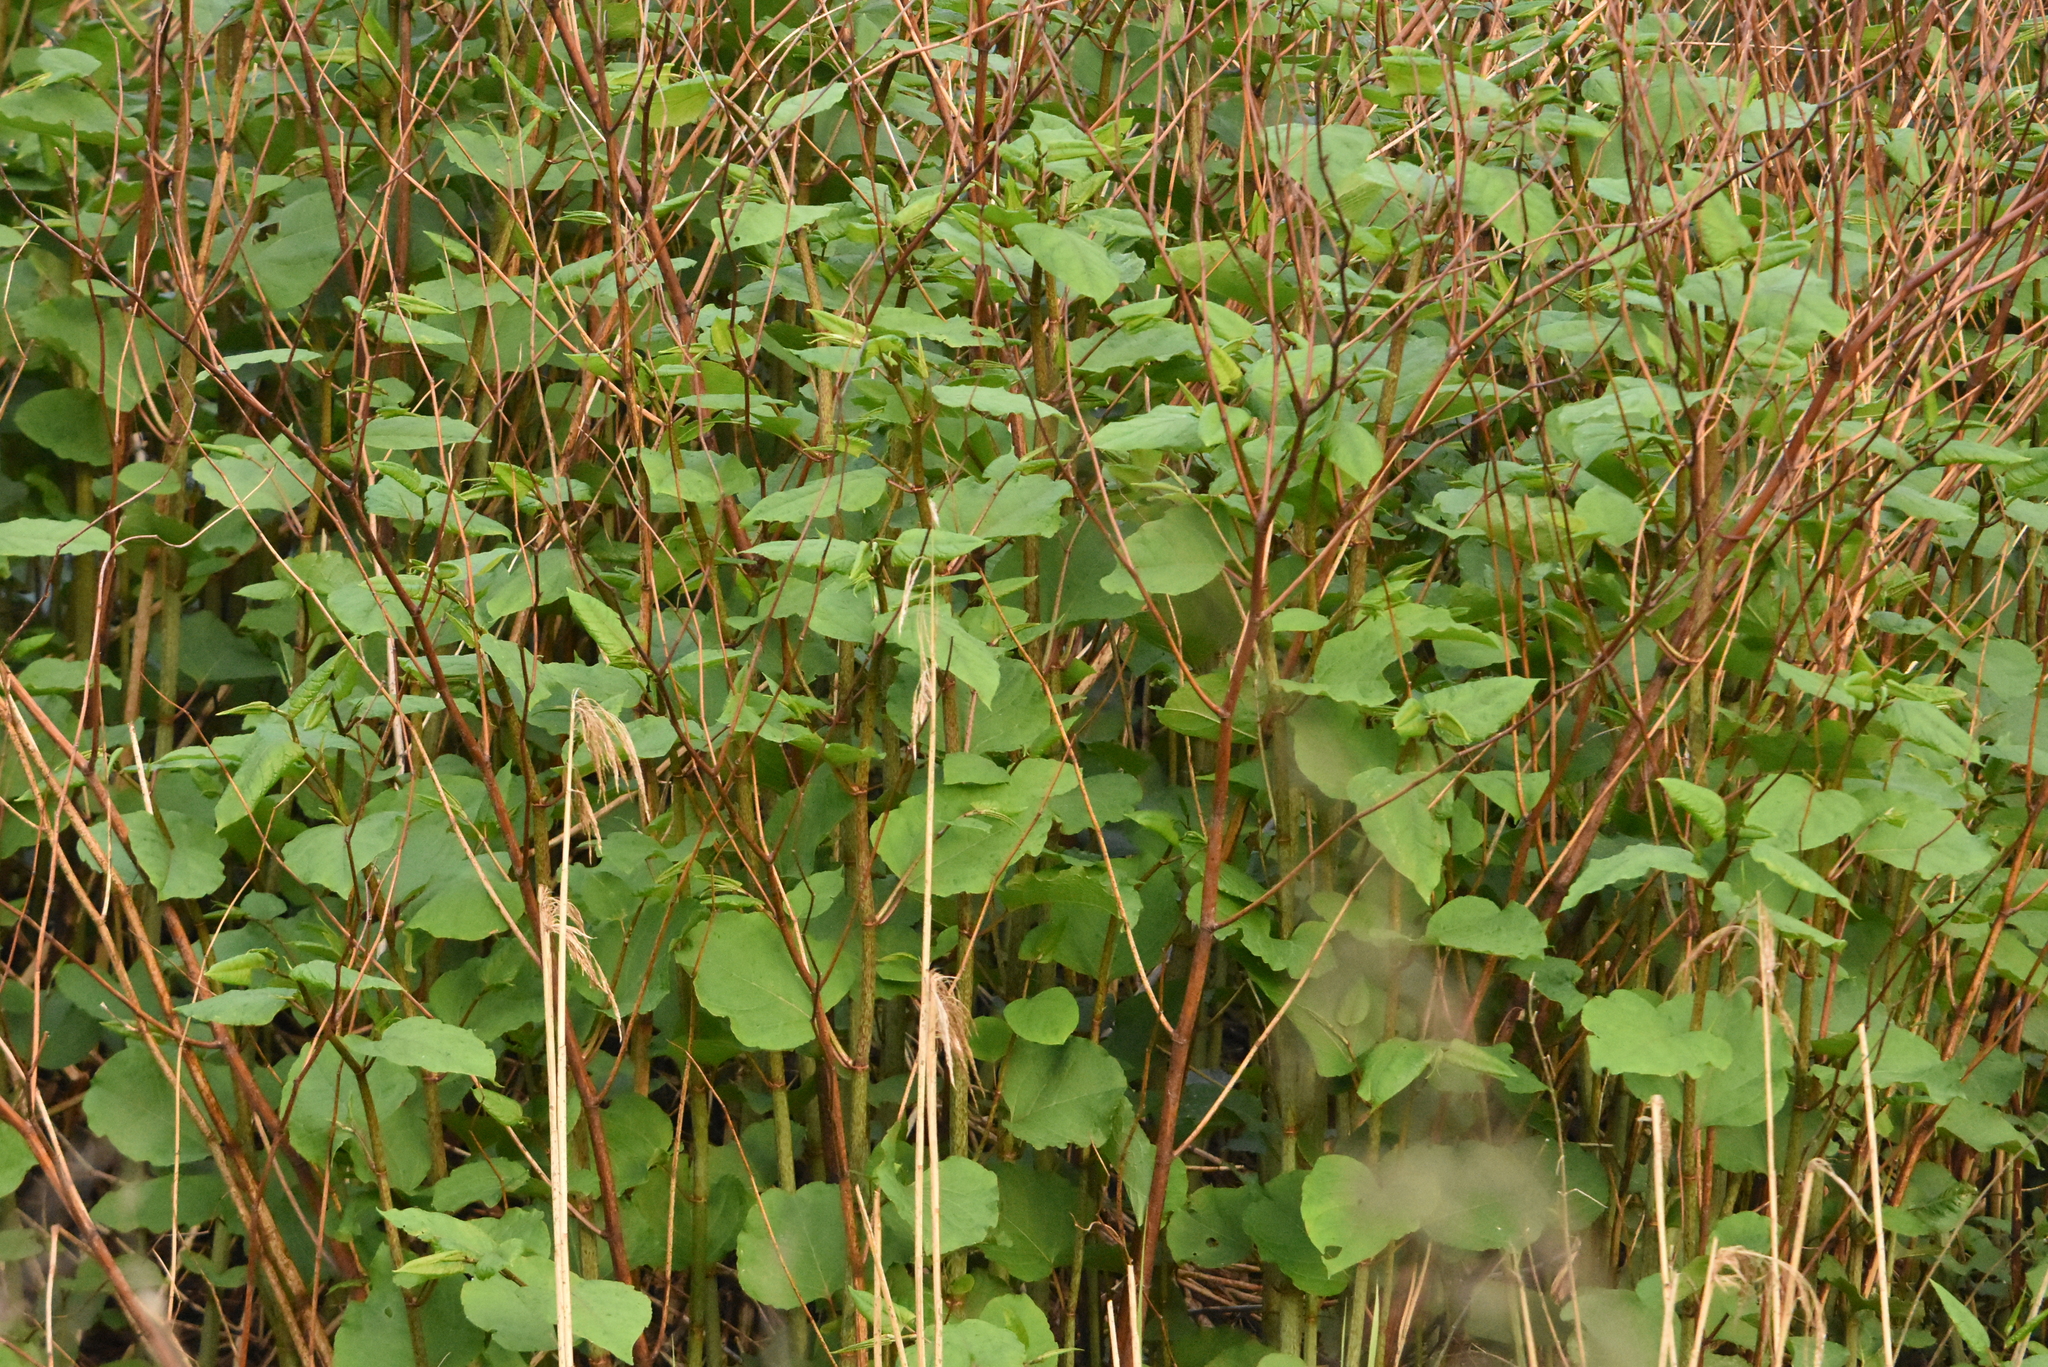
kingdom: Plantae
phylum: Tracheophyta
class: Magnoliopsida
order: Caryophyllales
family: Polygonaceae
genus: Reynoutria
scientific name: Reynoutria bohemica
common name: Bohemian knotweed
